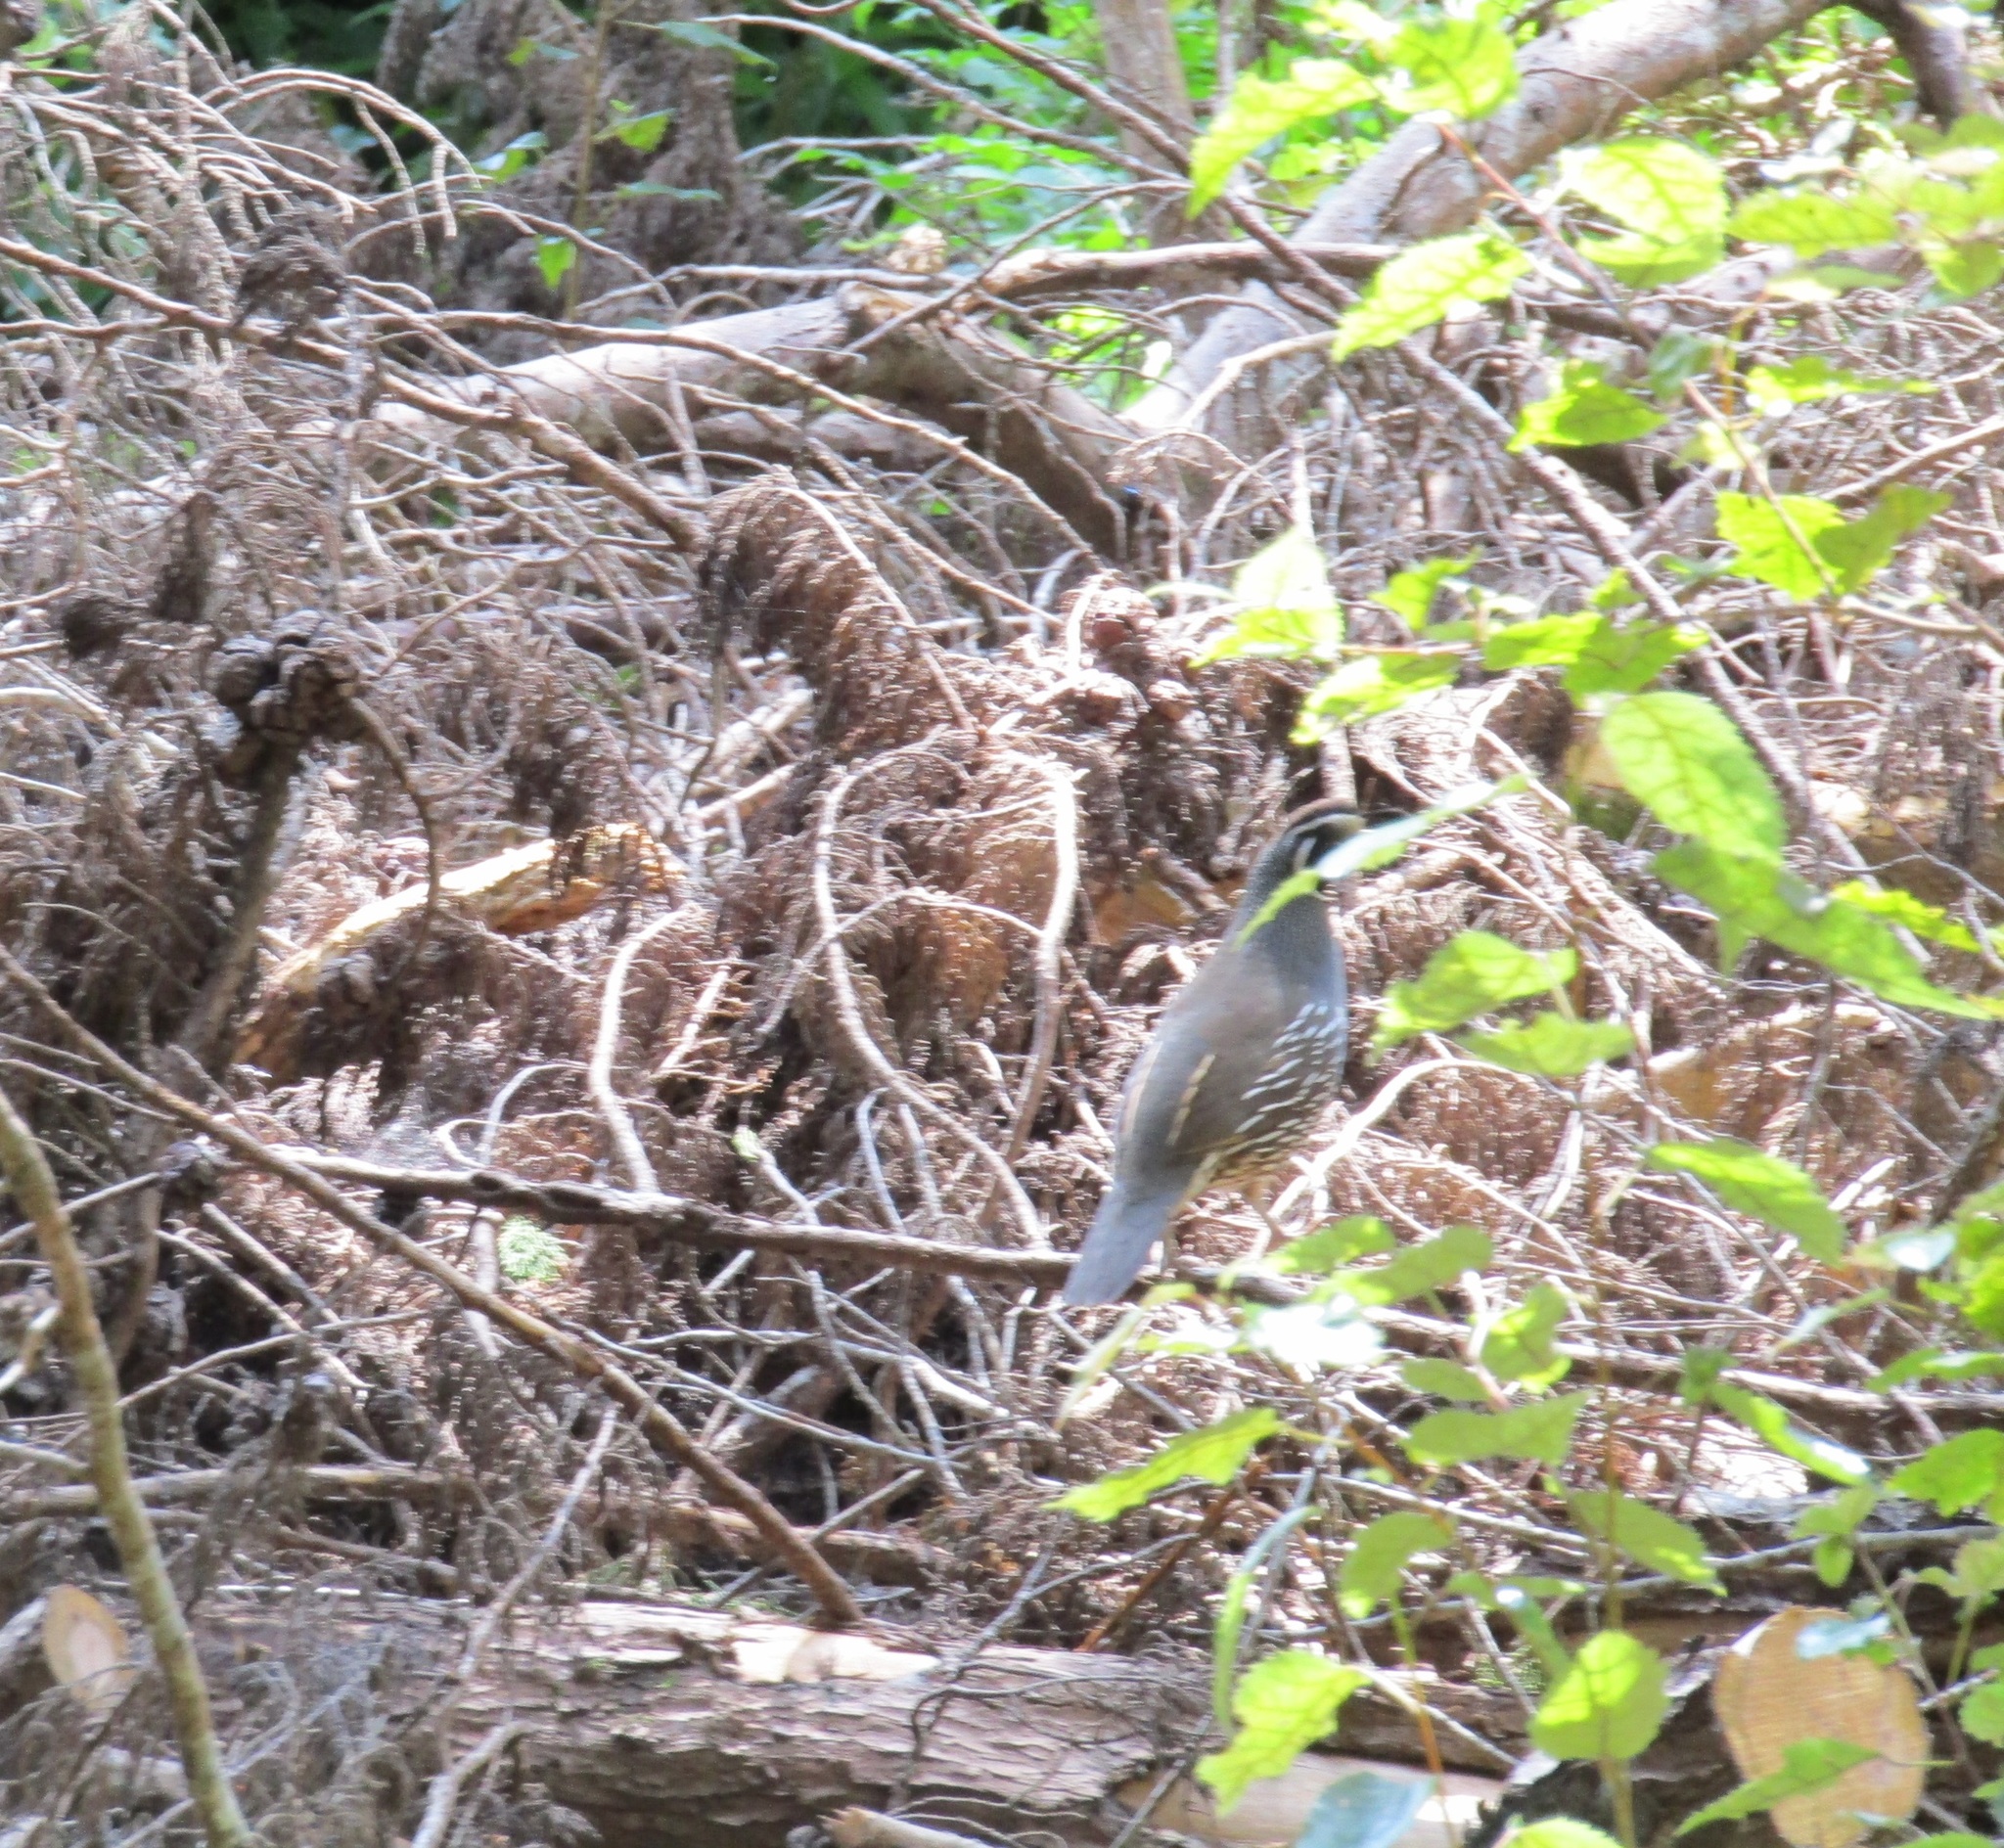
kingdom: Animalia
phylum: Chordata
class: Aves
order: Galliformes
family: Odontophoridae
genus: Callipepla
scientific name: Callipepla californica
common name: California quail
